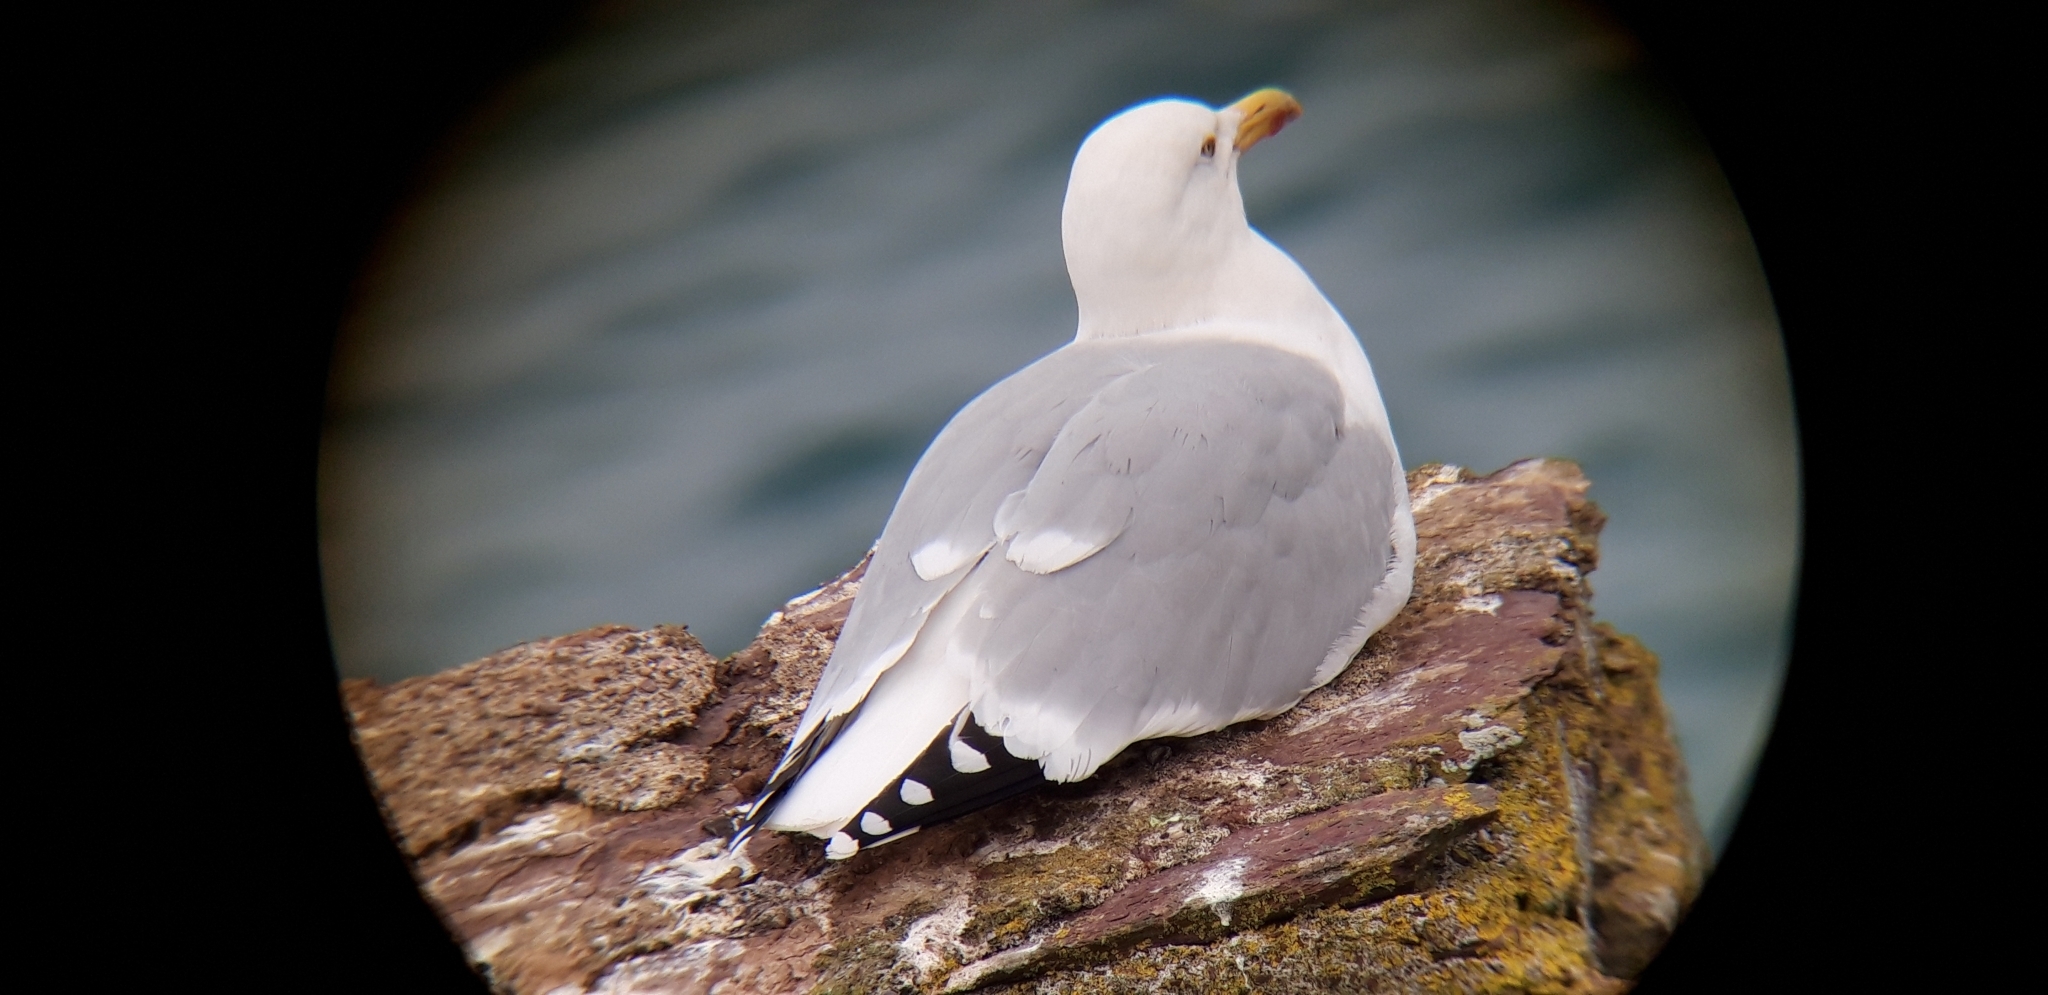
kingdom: Animalia
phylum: Chordata
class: Aves
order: Charadriiformes
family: Laridae
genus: Larus
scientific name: Larus argentatus
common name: Herring gull
